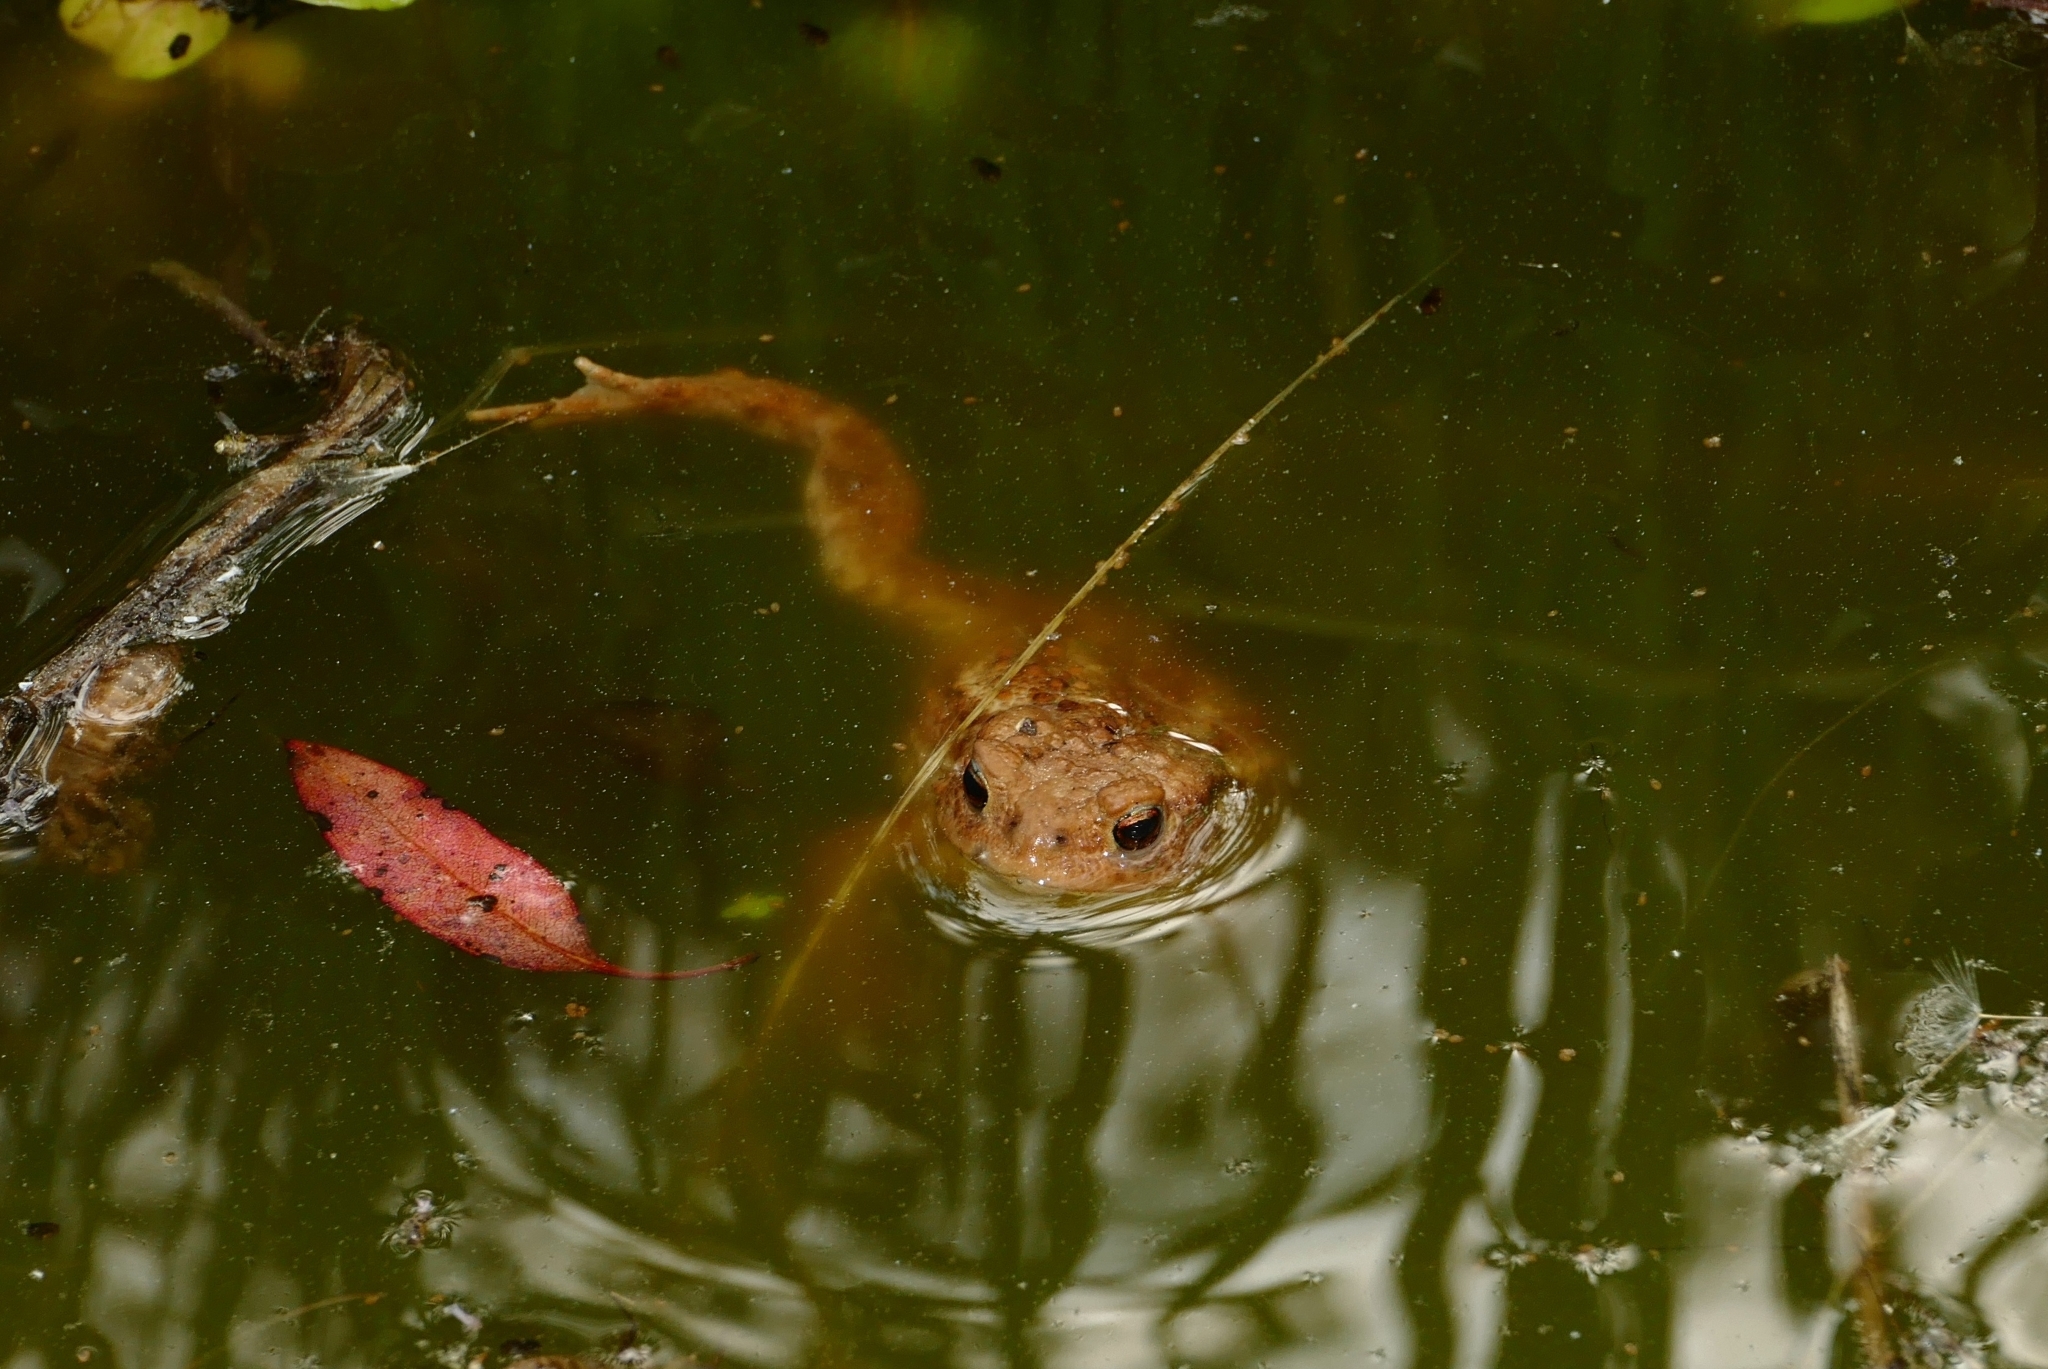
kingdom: Animalia
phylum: Chordata
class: Amphibia
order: Anura
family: Bufonidae
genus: Bufo
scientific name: Bufo bufo
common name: Common toad
